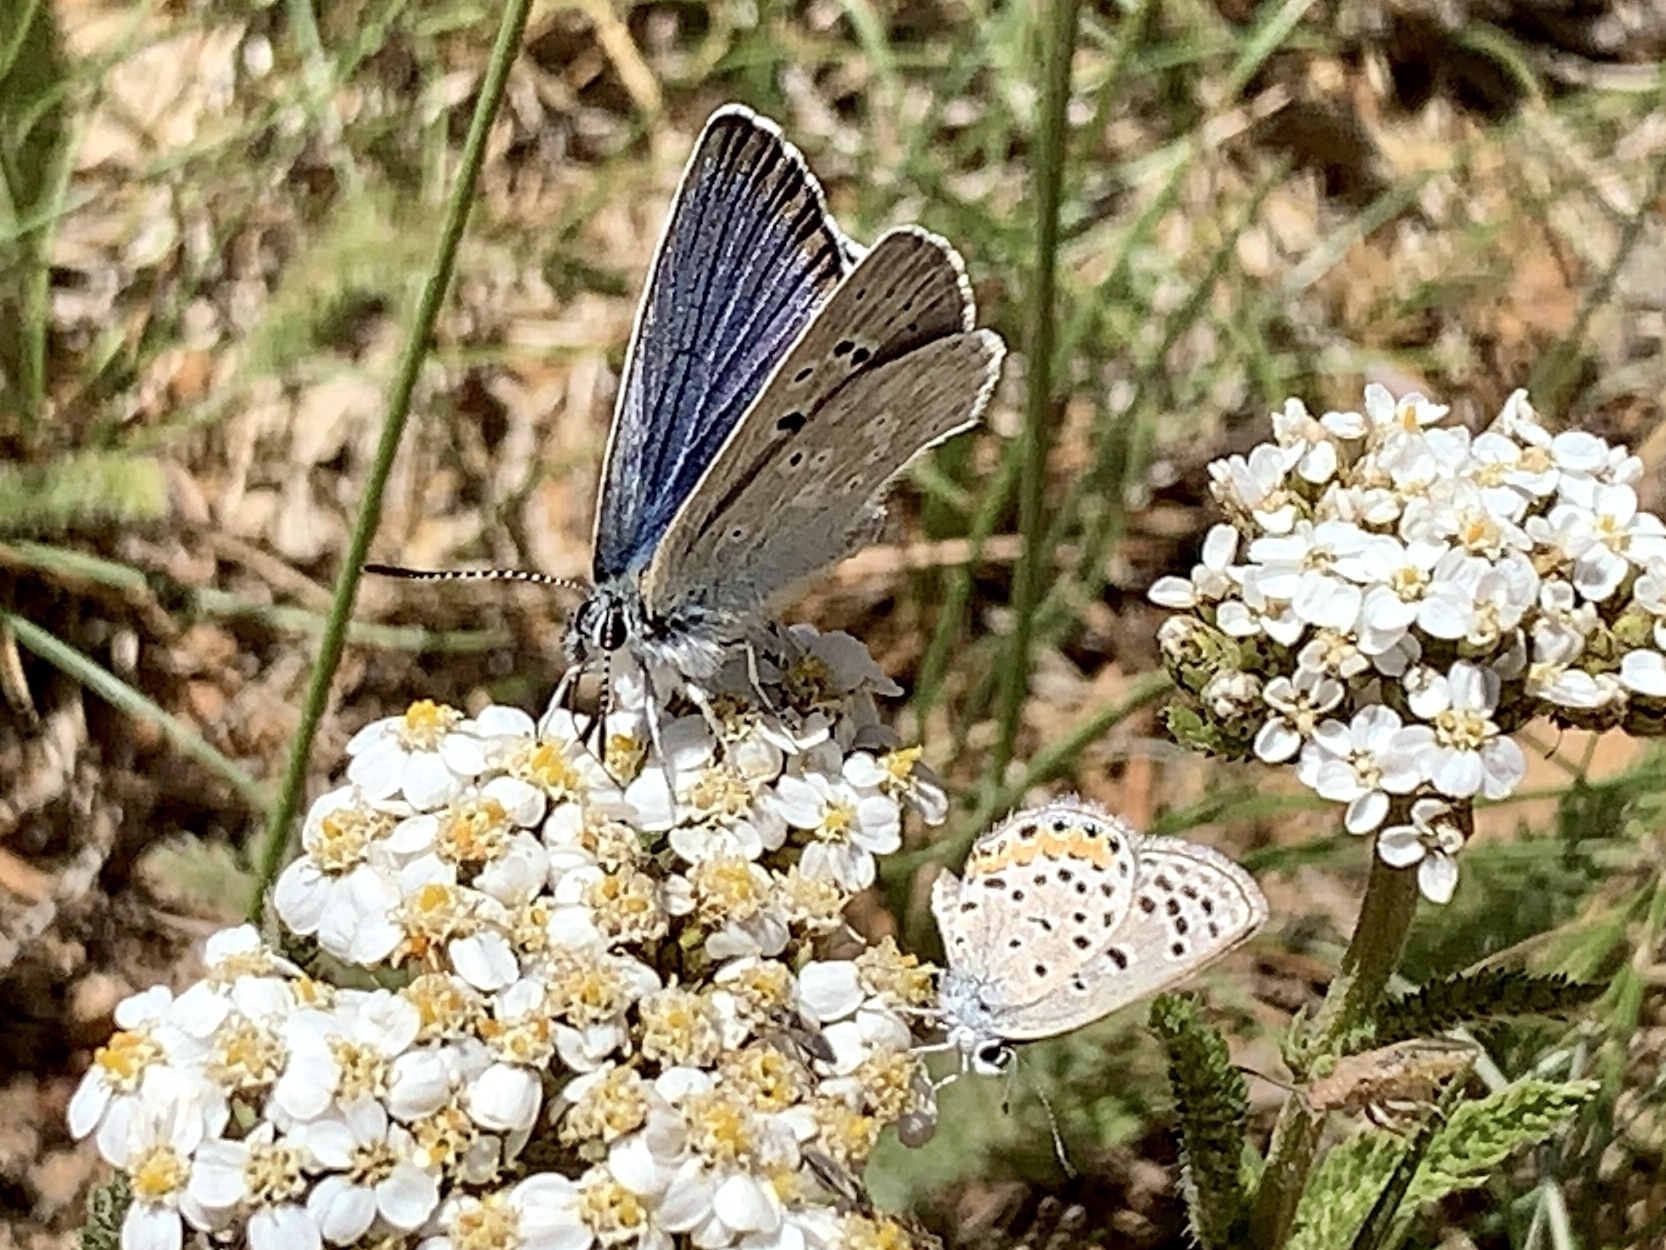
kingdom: Animalia
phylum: Arthropoda
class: Insecta
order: Lepidoptera
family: Lycaenidae
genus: Icaricia
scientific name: Icaricia icarioides
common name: Boisduval's blue
